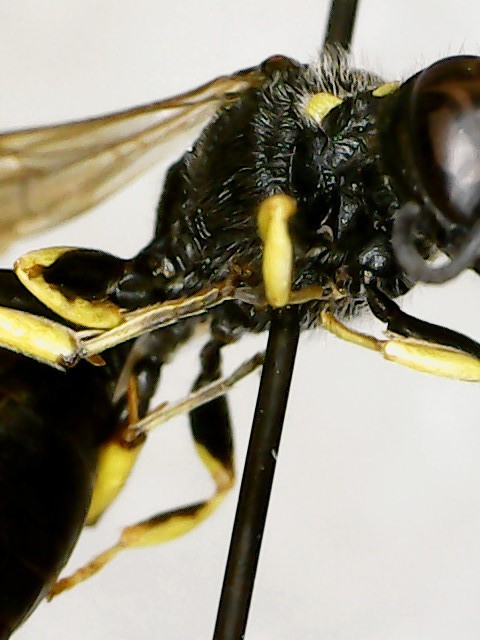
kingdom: Animalia
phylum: Arthropoda
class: Insecta
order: Hymenoptera
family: Crabronidae
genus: Ectemnius
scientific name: Ectemnius lapidarius
